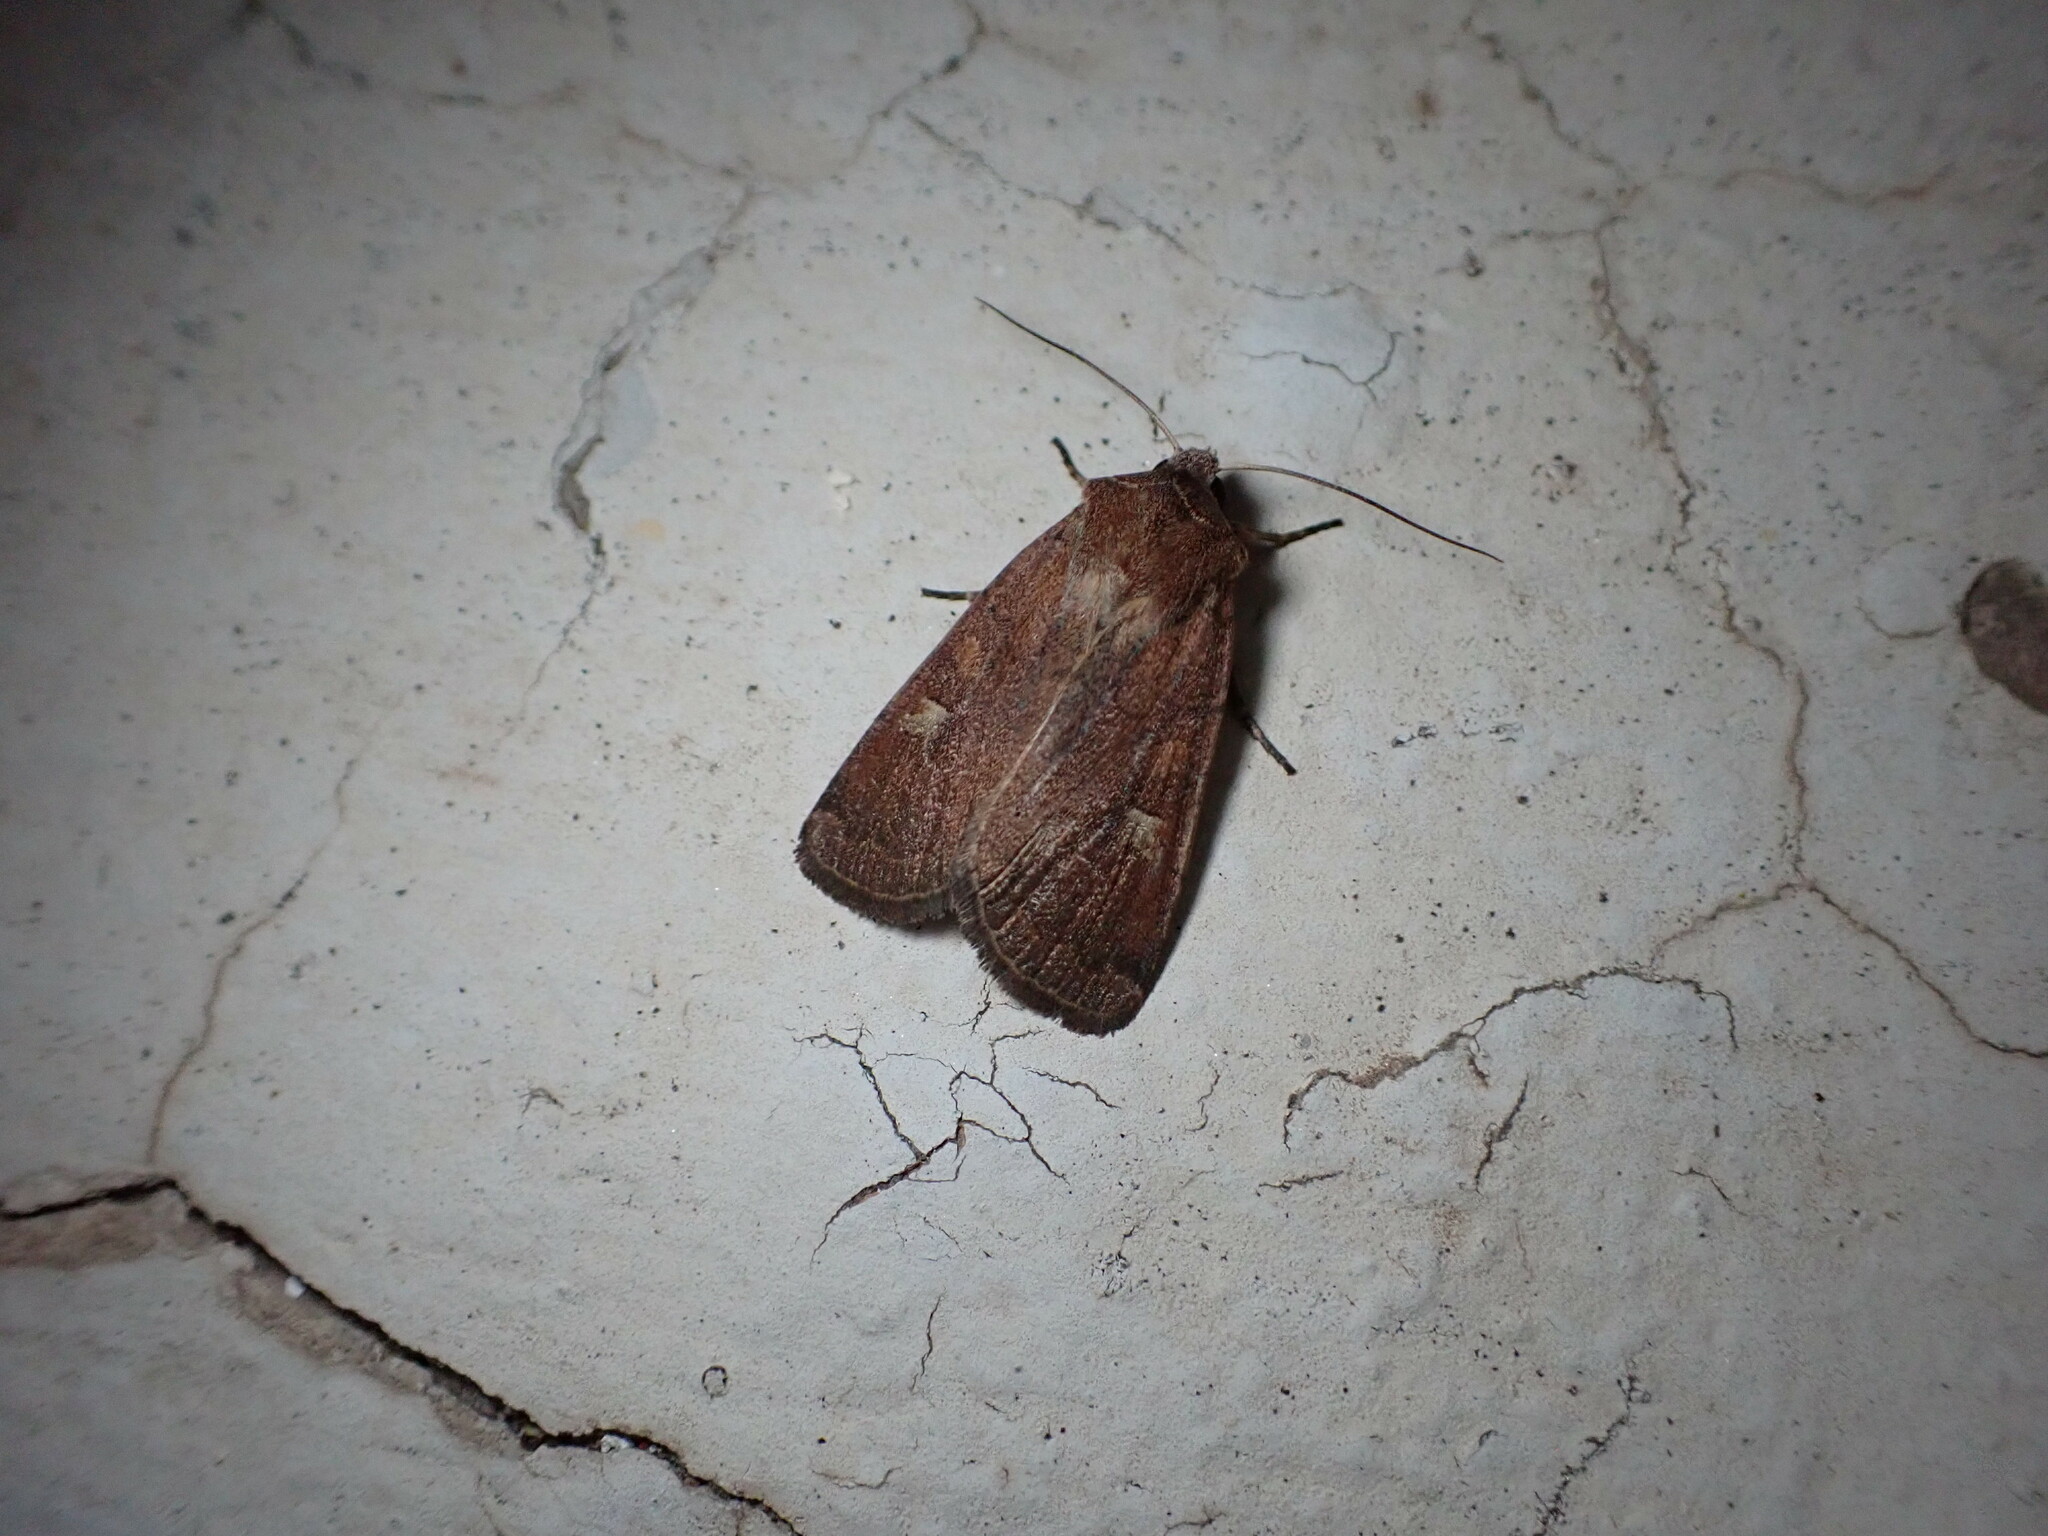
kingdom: Animalia
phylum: Arthropoda
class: Insecta
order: Lepidoptera
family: Noctuidae
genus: Xestia
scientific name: Xestia xanthographa
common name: Square-spot rustic
